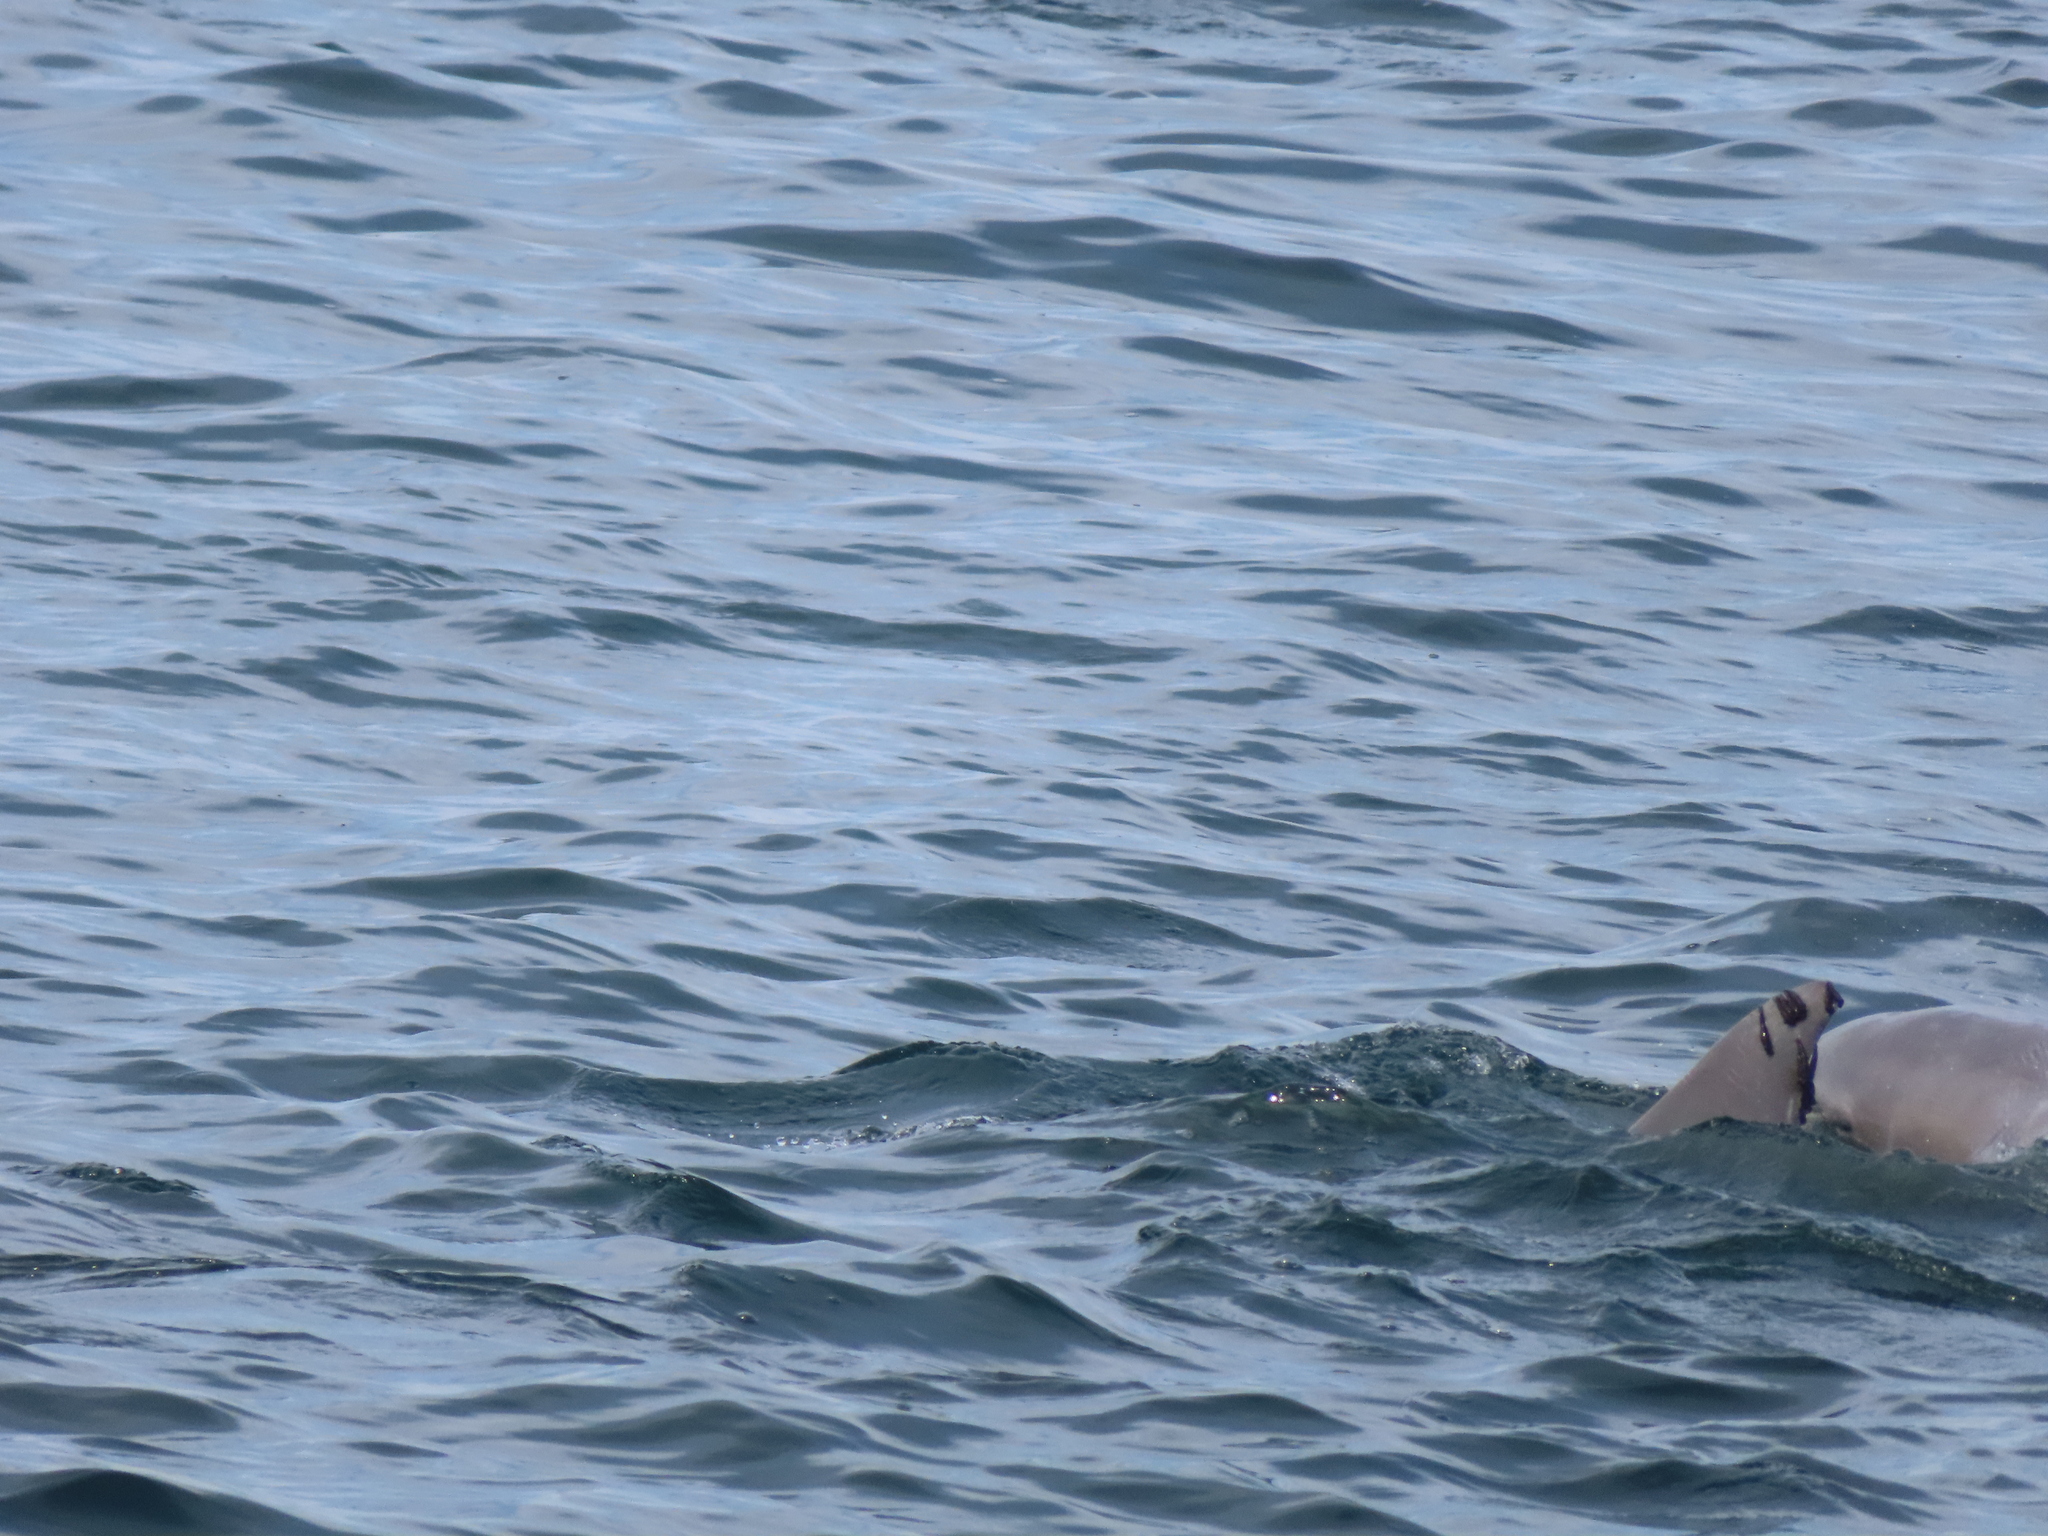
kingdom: Animalia
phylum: Chordata
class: Mammalia
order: Cetacea
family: Delphinidae
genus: Tursiops
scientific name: Tursiops truncatus
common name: Bottlenose dolphin
